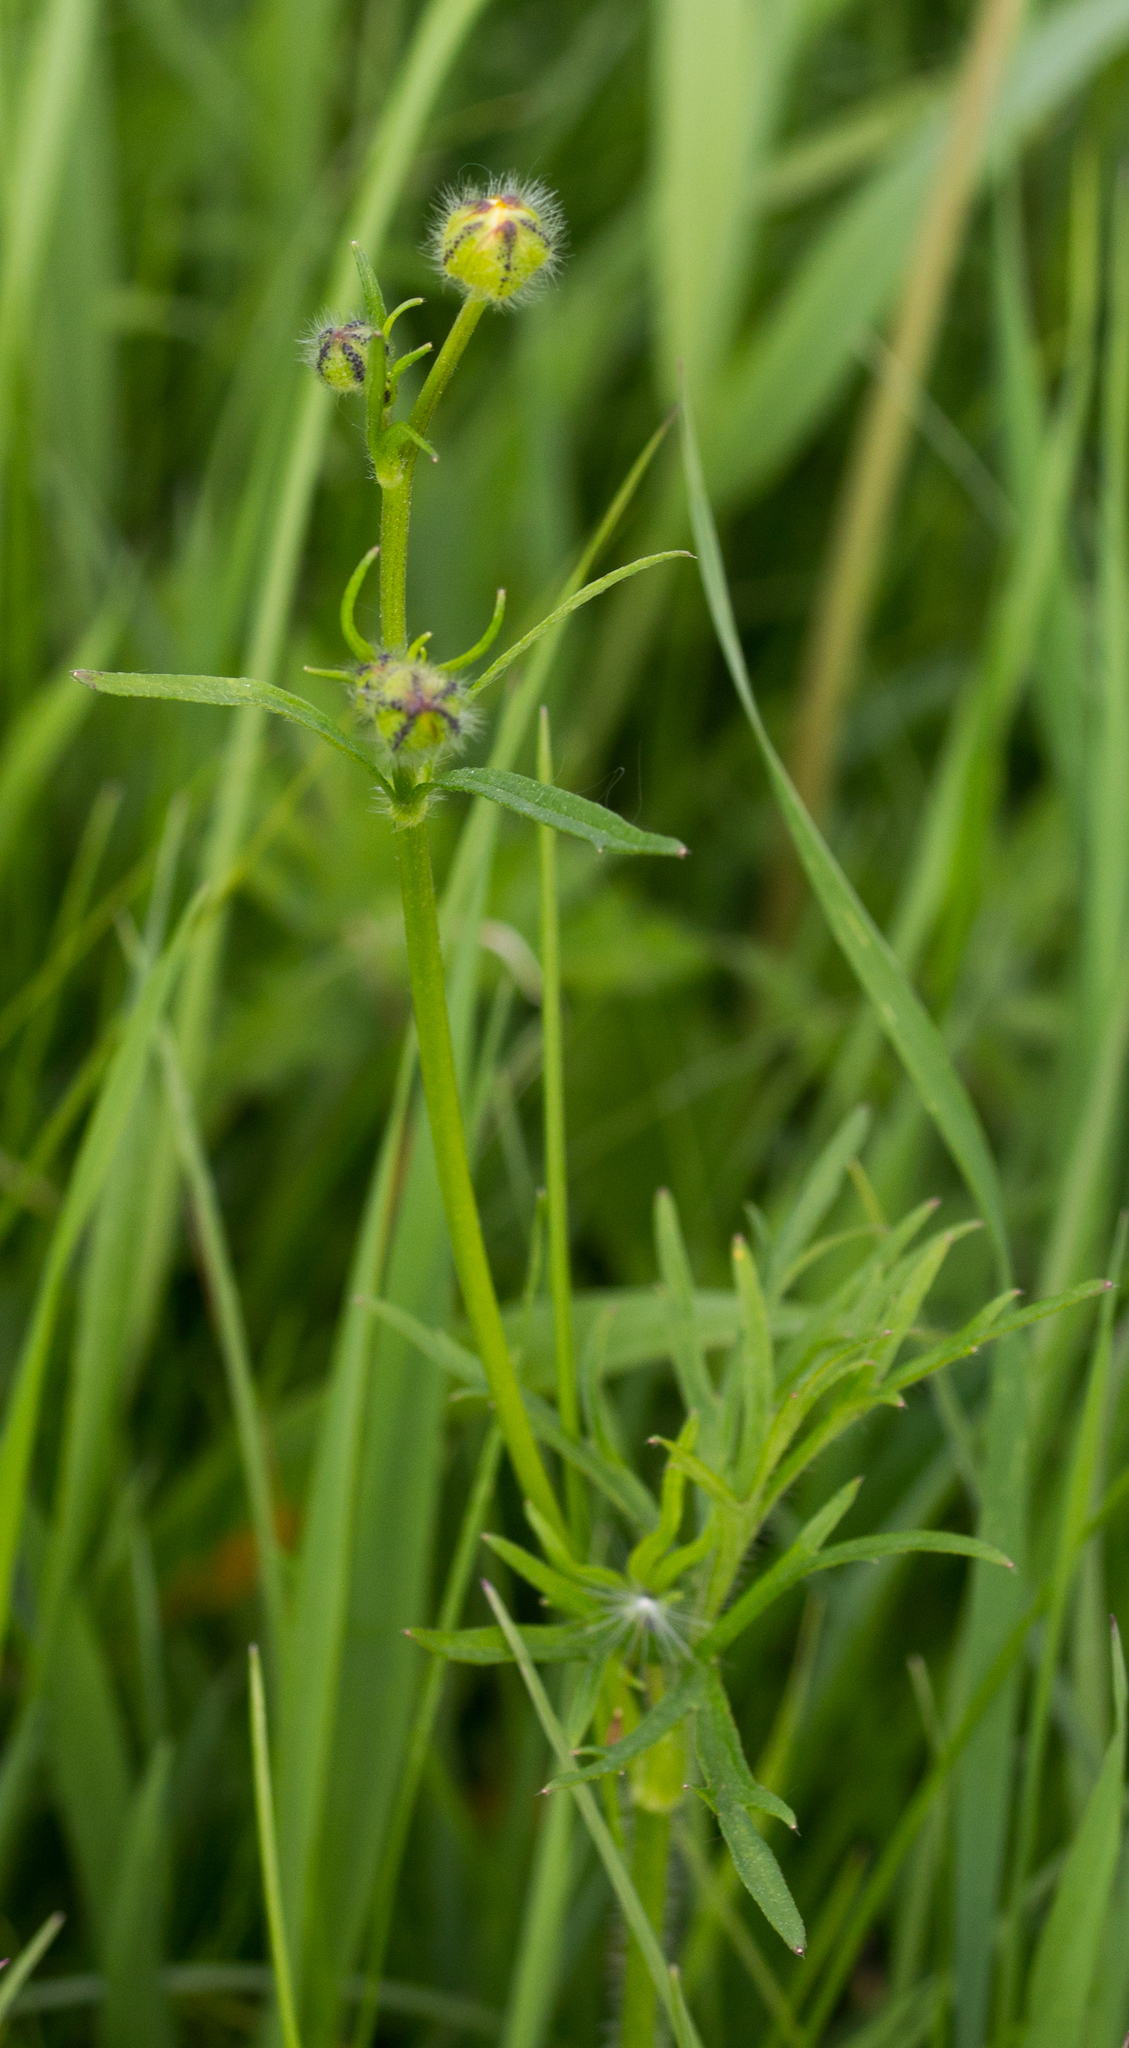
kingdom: Plantae
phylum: Tracheophyta
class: Magnoliopsida
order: Ranunculales
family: Ranunculaceae
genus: Ranunculus
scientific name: Ranunculus polyanthemos
